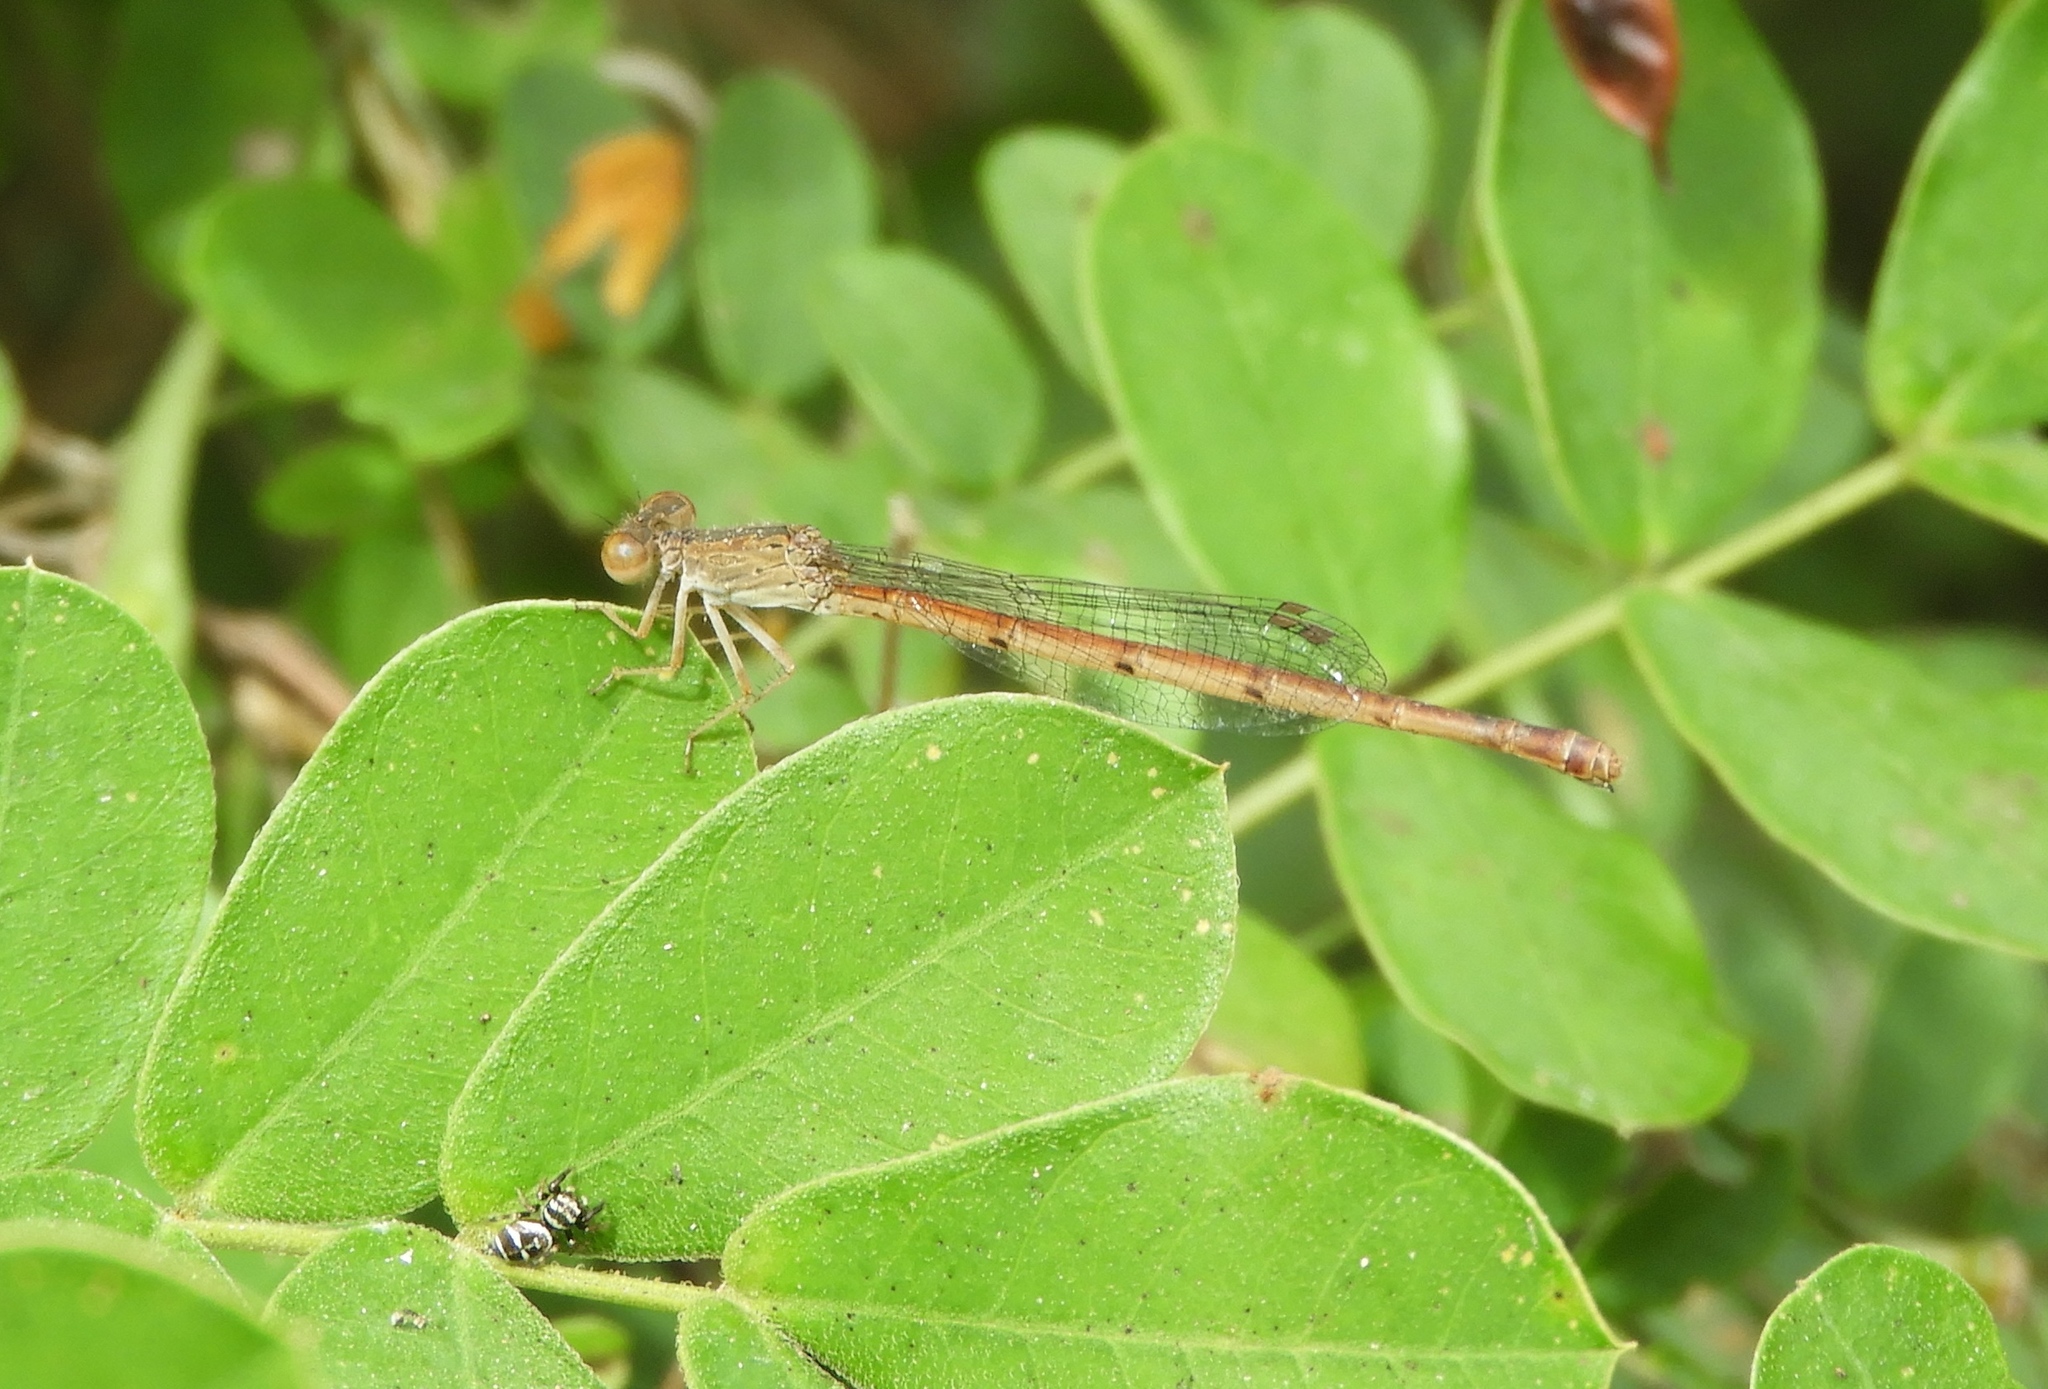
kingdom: Animalia
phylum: Arthropoda
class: Insecta
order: Odonata
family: Coenagrionidae
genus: Telebasis
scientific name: Telebasis
